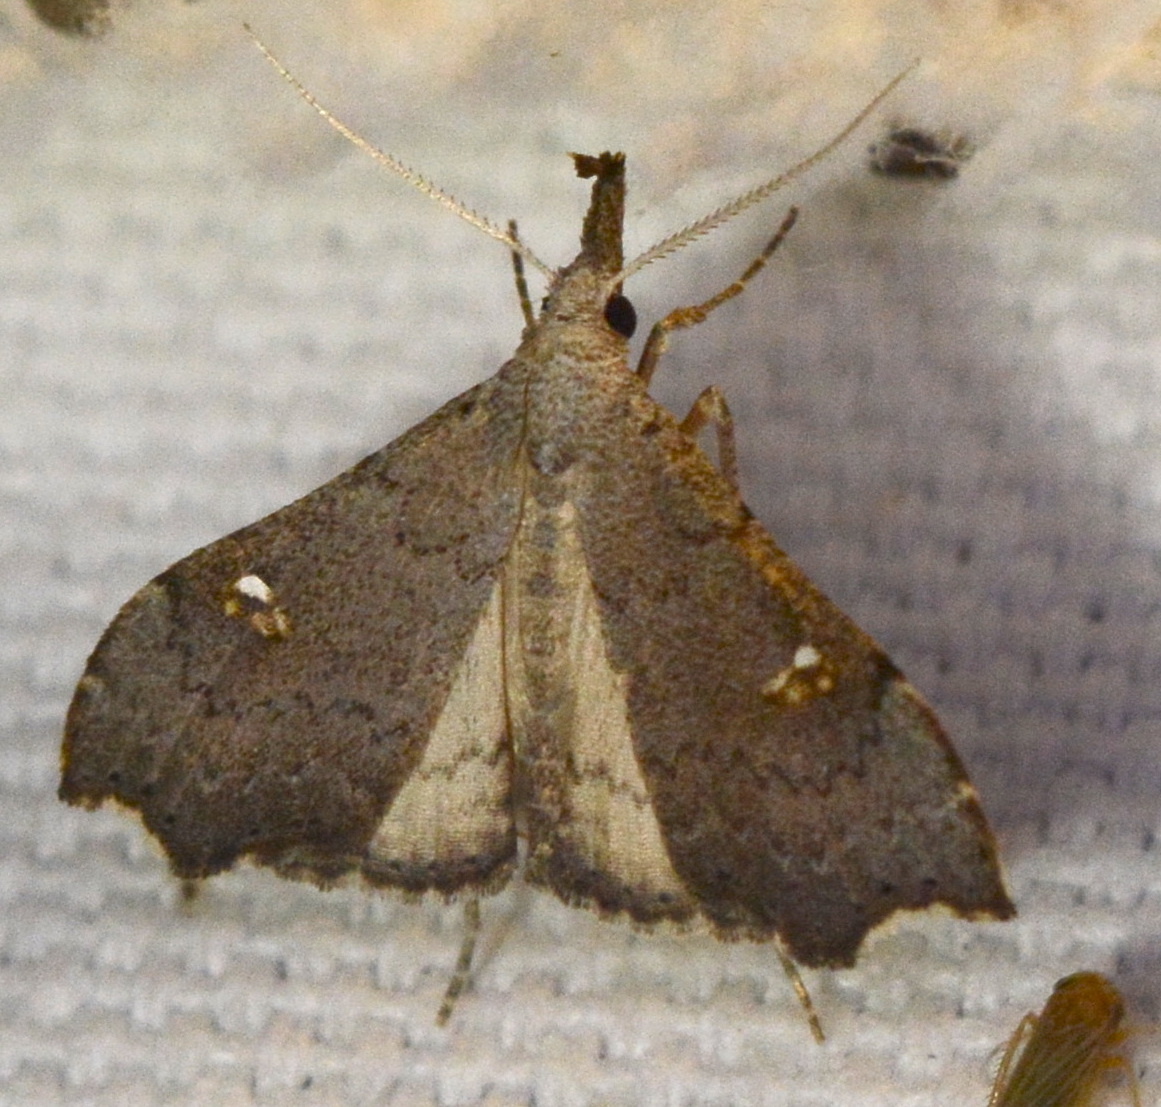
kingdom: Animalia
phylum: Arthropoda
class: Insecta
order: Lepidoptera
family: Erebidae
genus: Redectis
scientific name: Redectis vitrea
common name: White-spotted redectis
